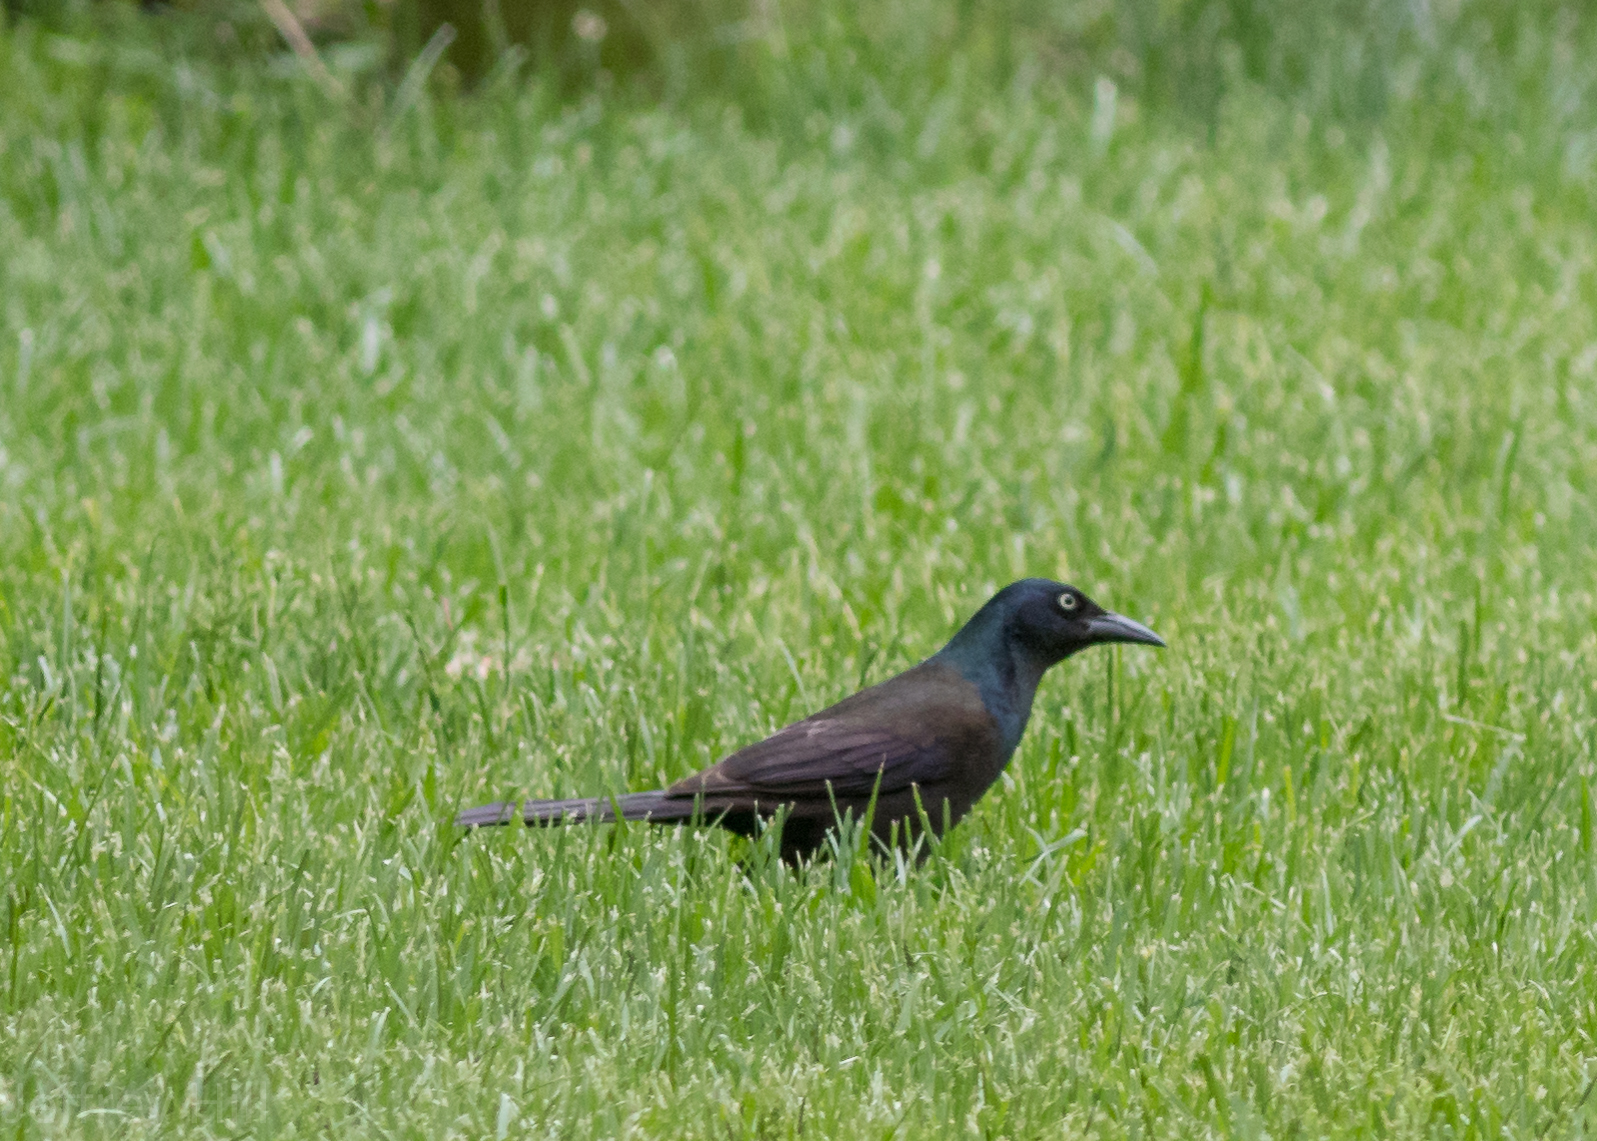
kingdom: Animalia
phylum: Chordata
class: Aves
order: Passeriformes
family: Icteridae
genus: Quiscalus
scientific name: Quiscalus quiscula
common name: Common grackle
